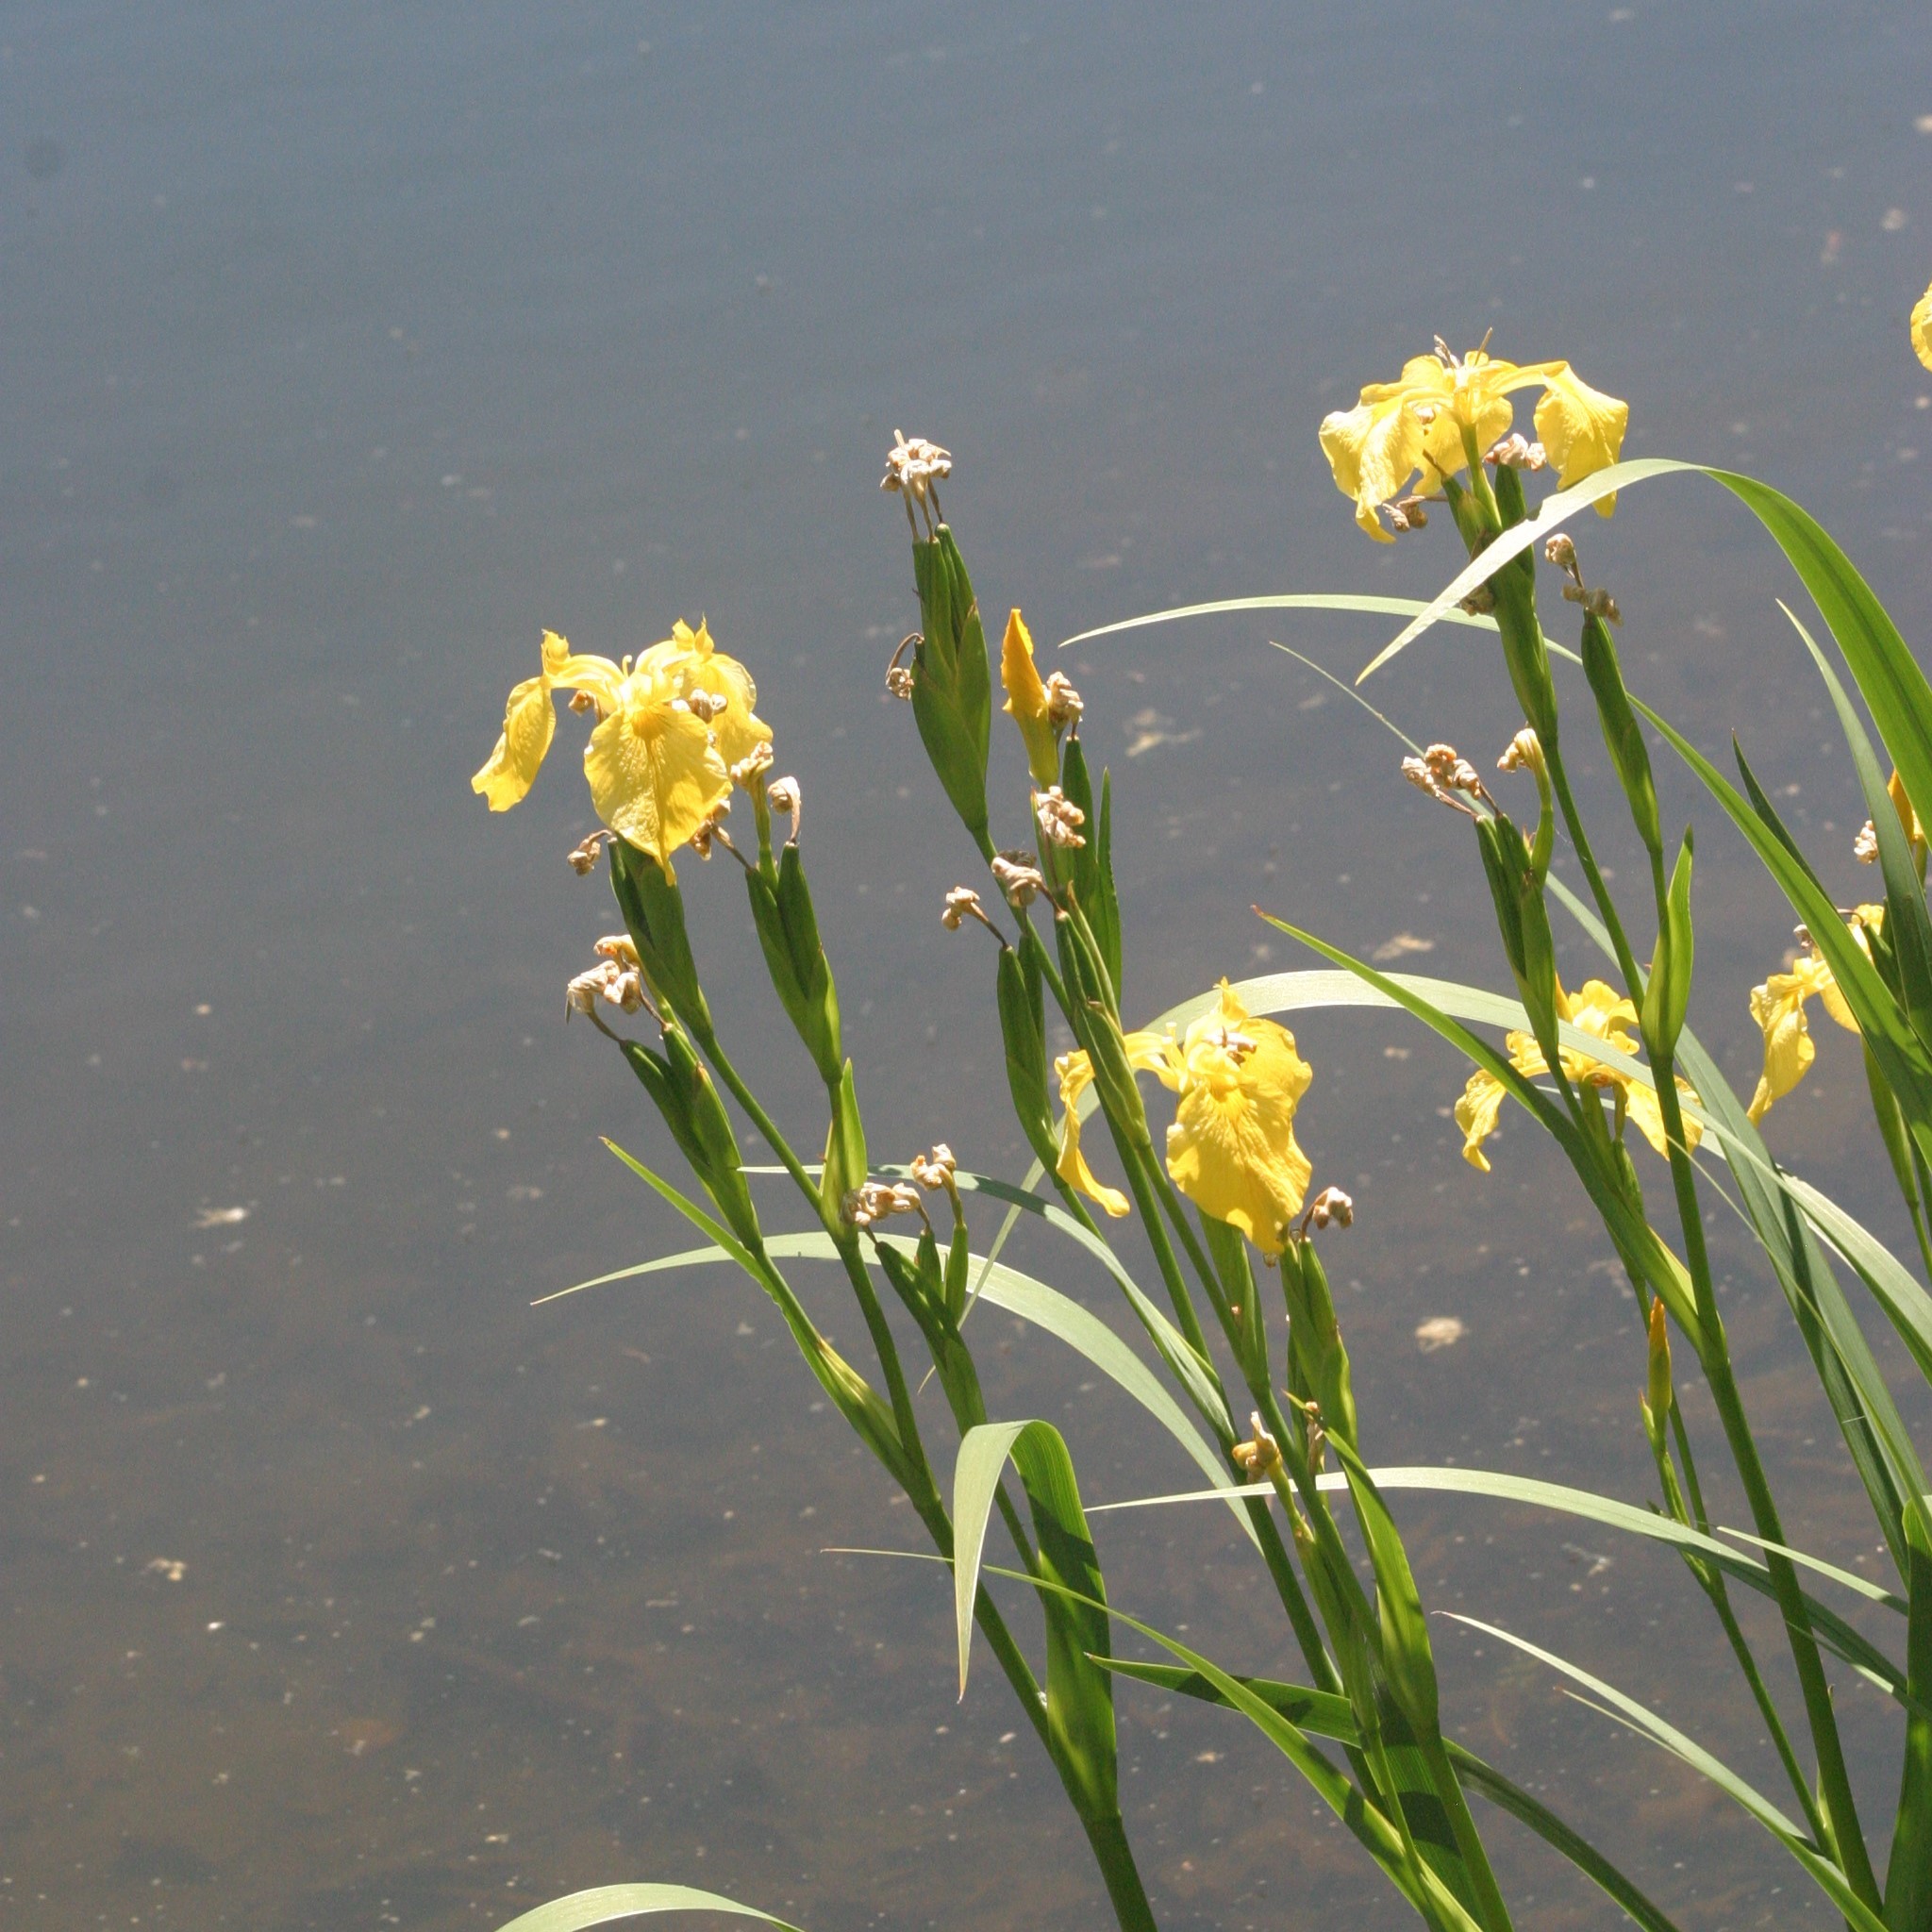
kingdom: Plantae
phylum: Tracheophyta
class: Liliopsida
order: Asparagales
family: Iridaceae
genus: Iris
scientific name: Iris pseudacorus
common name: Yellow flag
